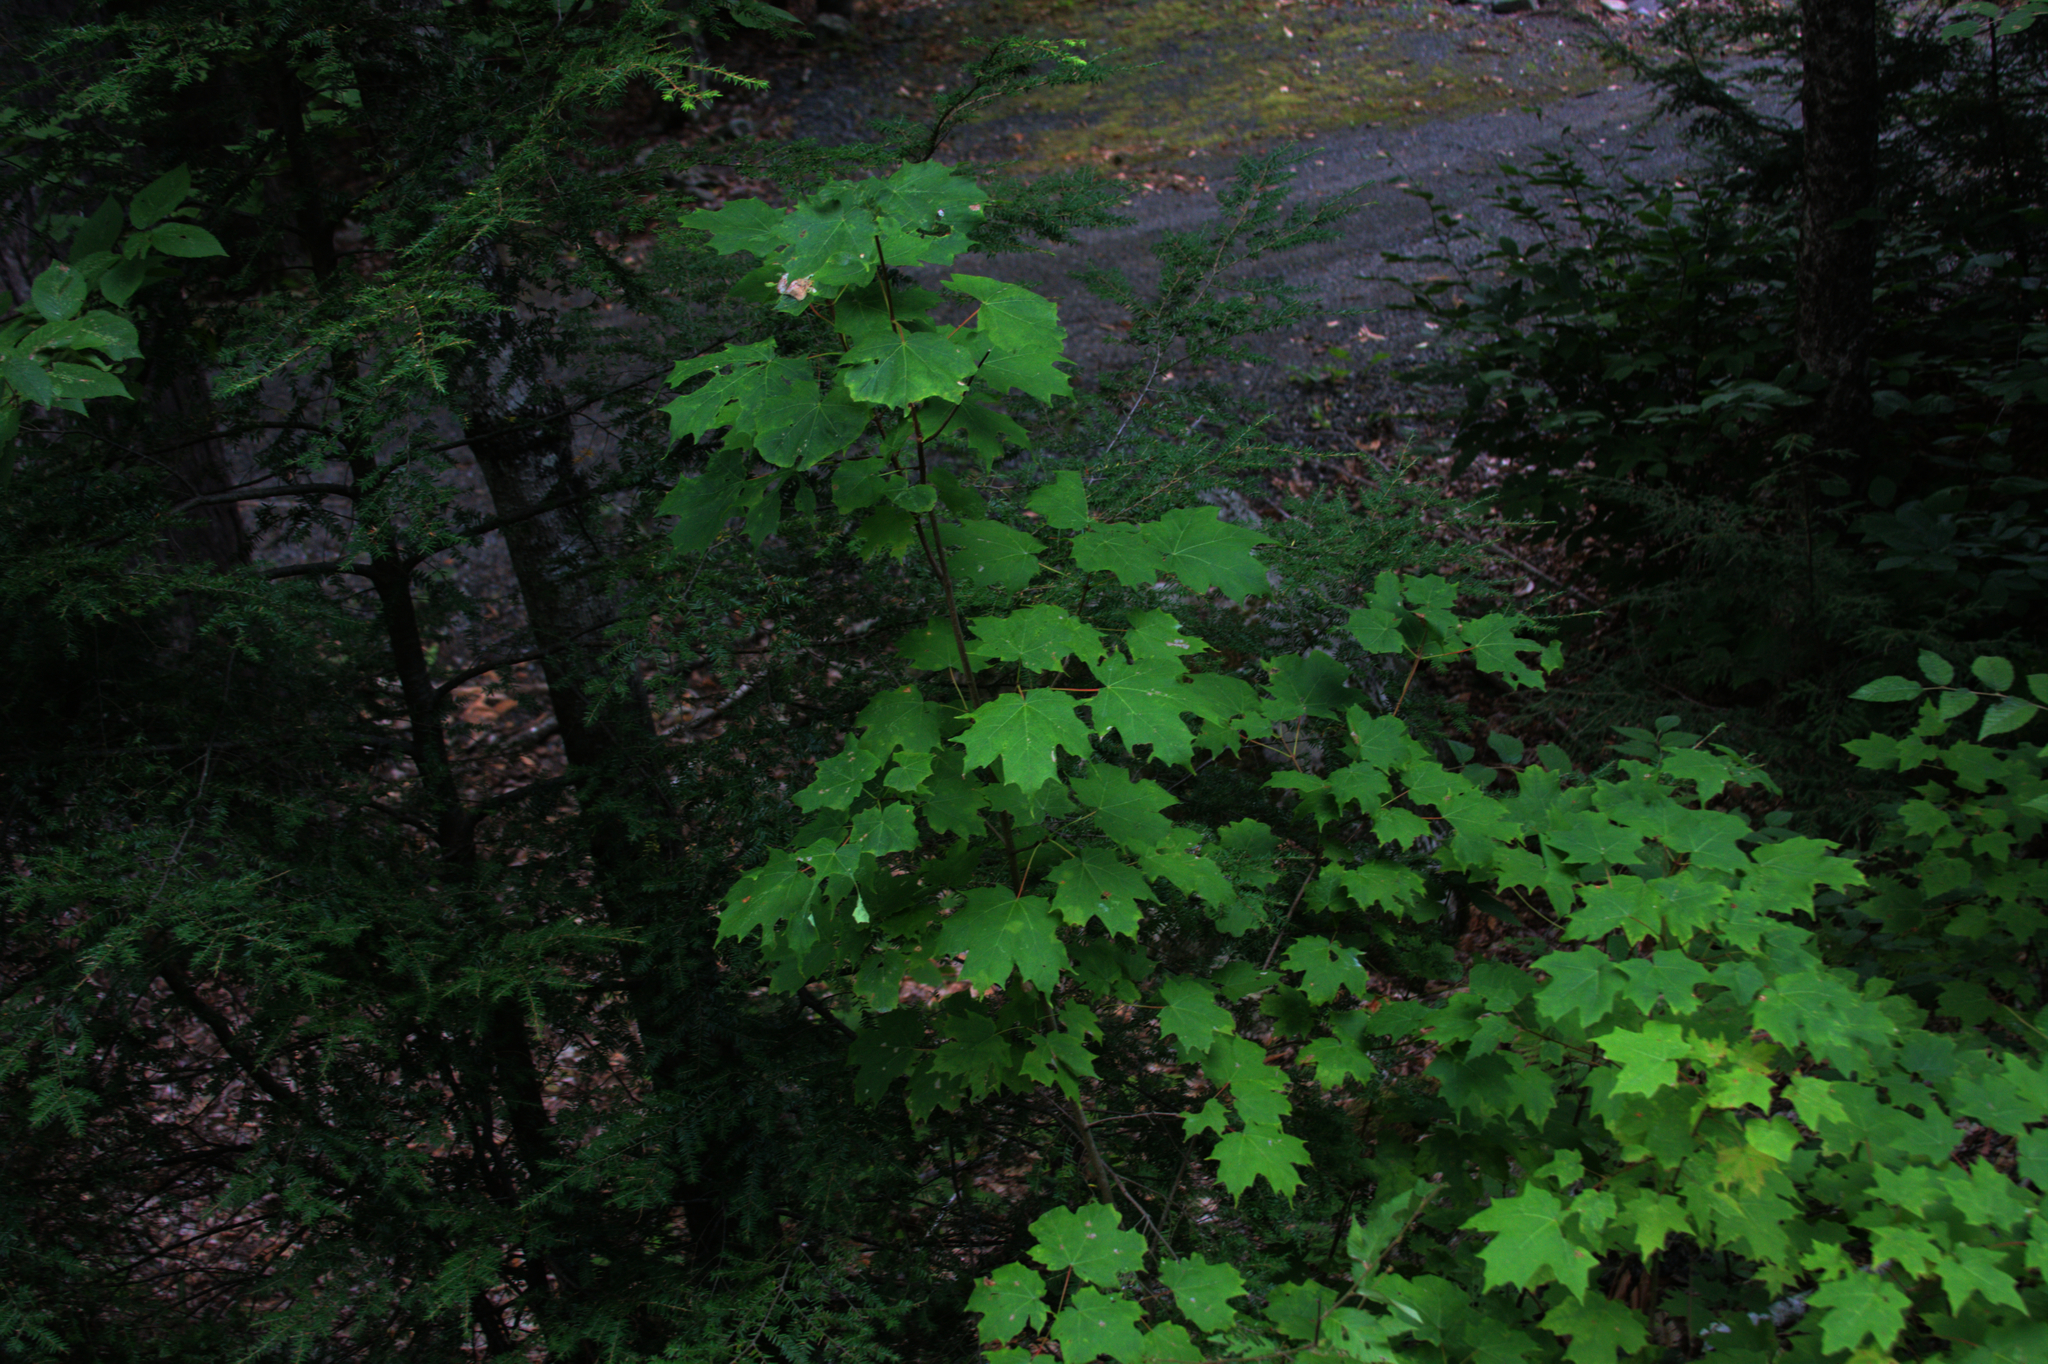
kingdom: Plantae
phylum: Tracheophyta
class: Magnoliopsida
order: Sapindales
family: Sapindaceae
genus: Acer
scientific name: Acer saccharum
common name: Sugar maple
